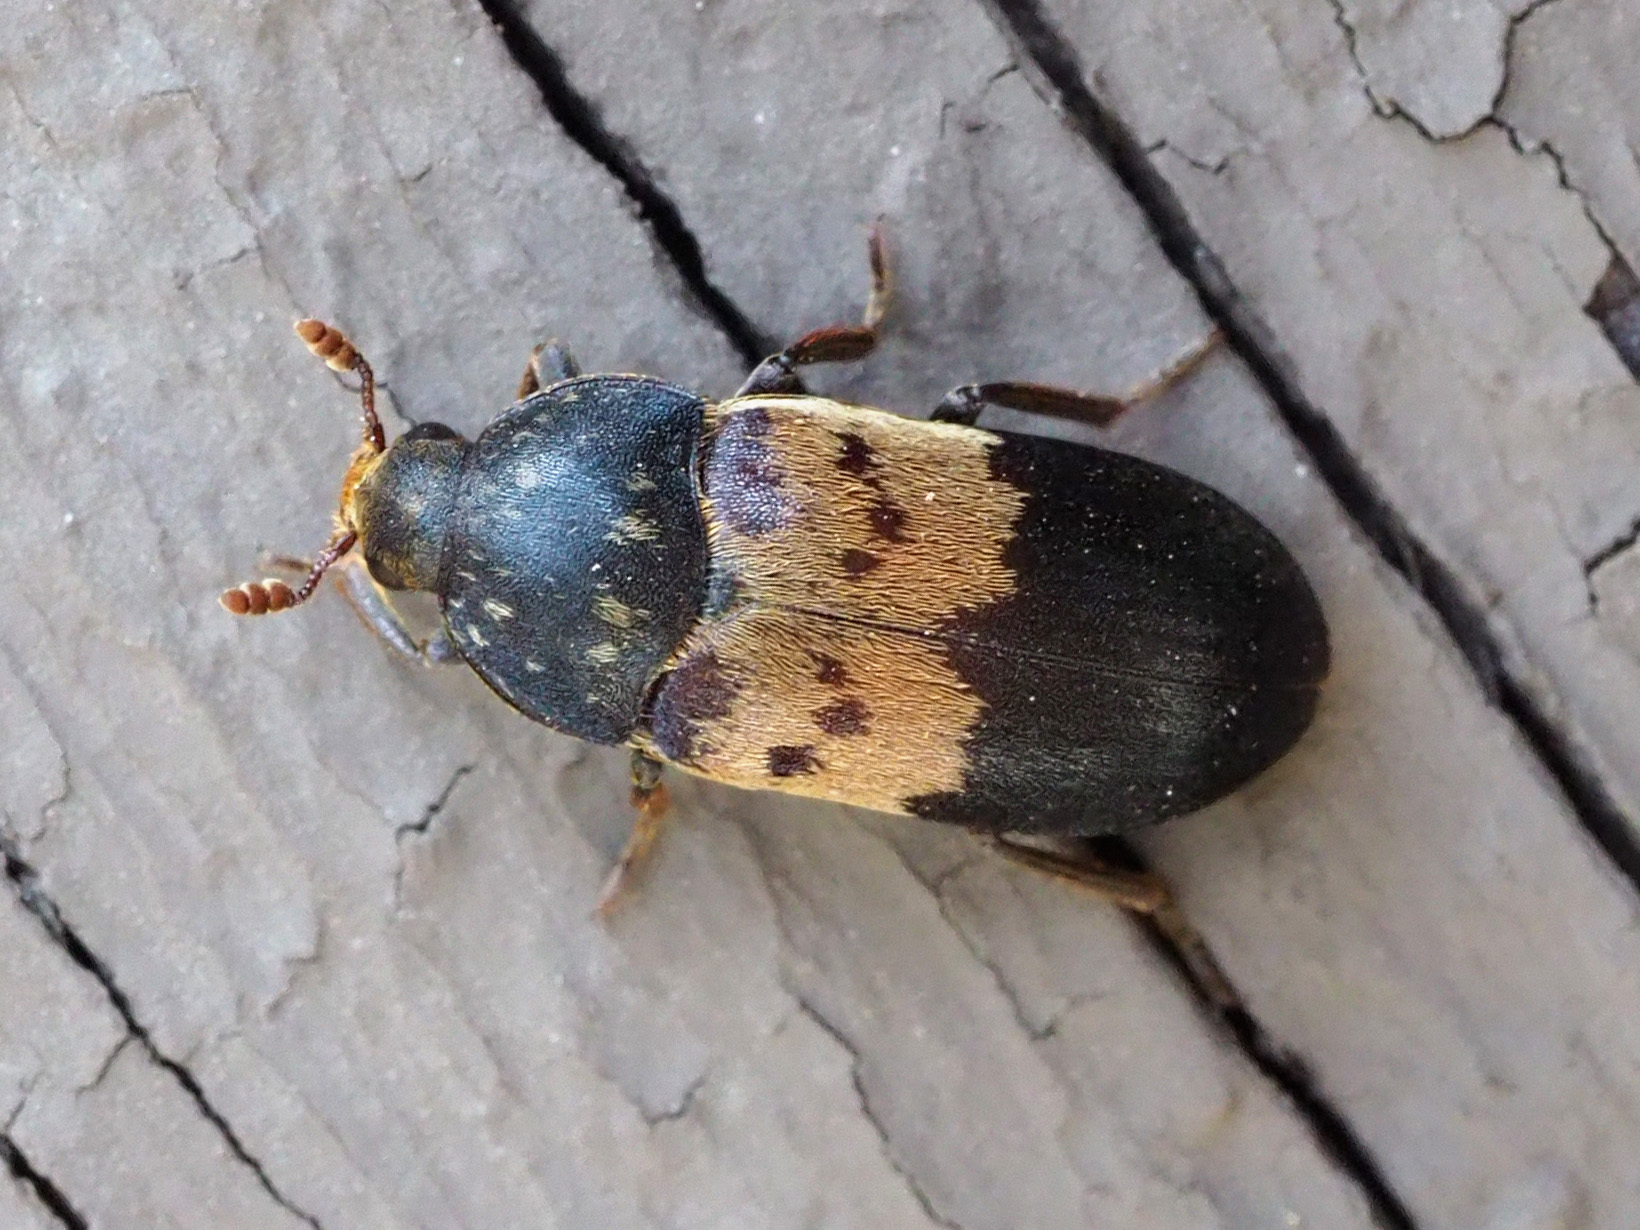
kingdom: Animalia
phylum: Arthropoda
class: Insecta
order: Coleoptera
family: Dermestidae
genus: Dermestes
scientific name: Dermestes lardarius
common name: Larder beetle
